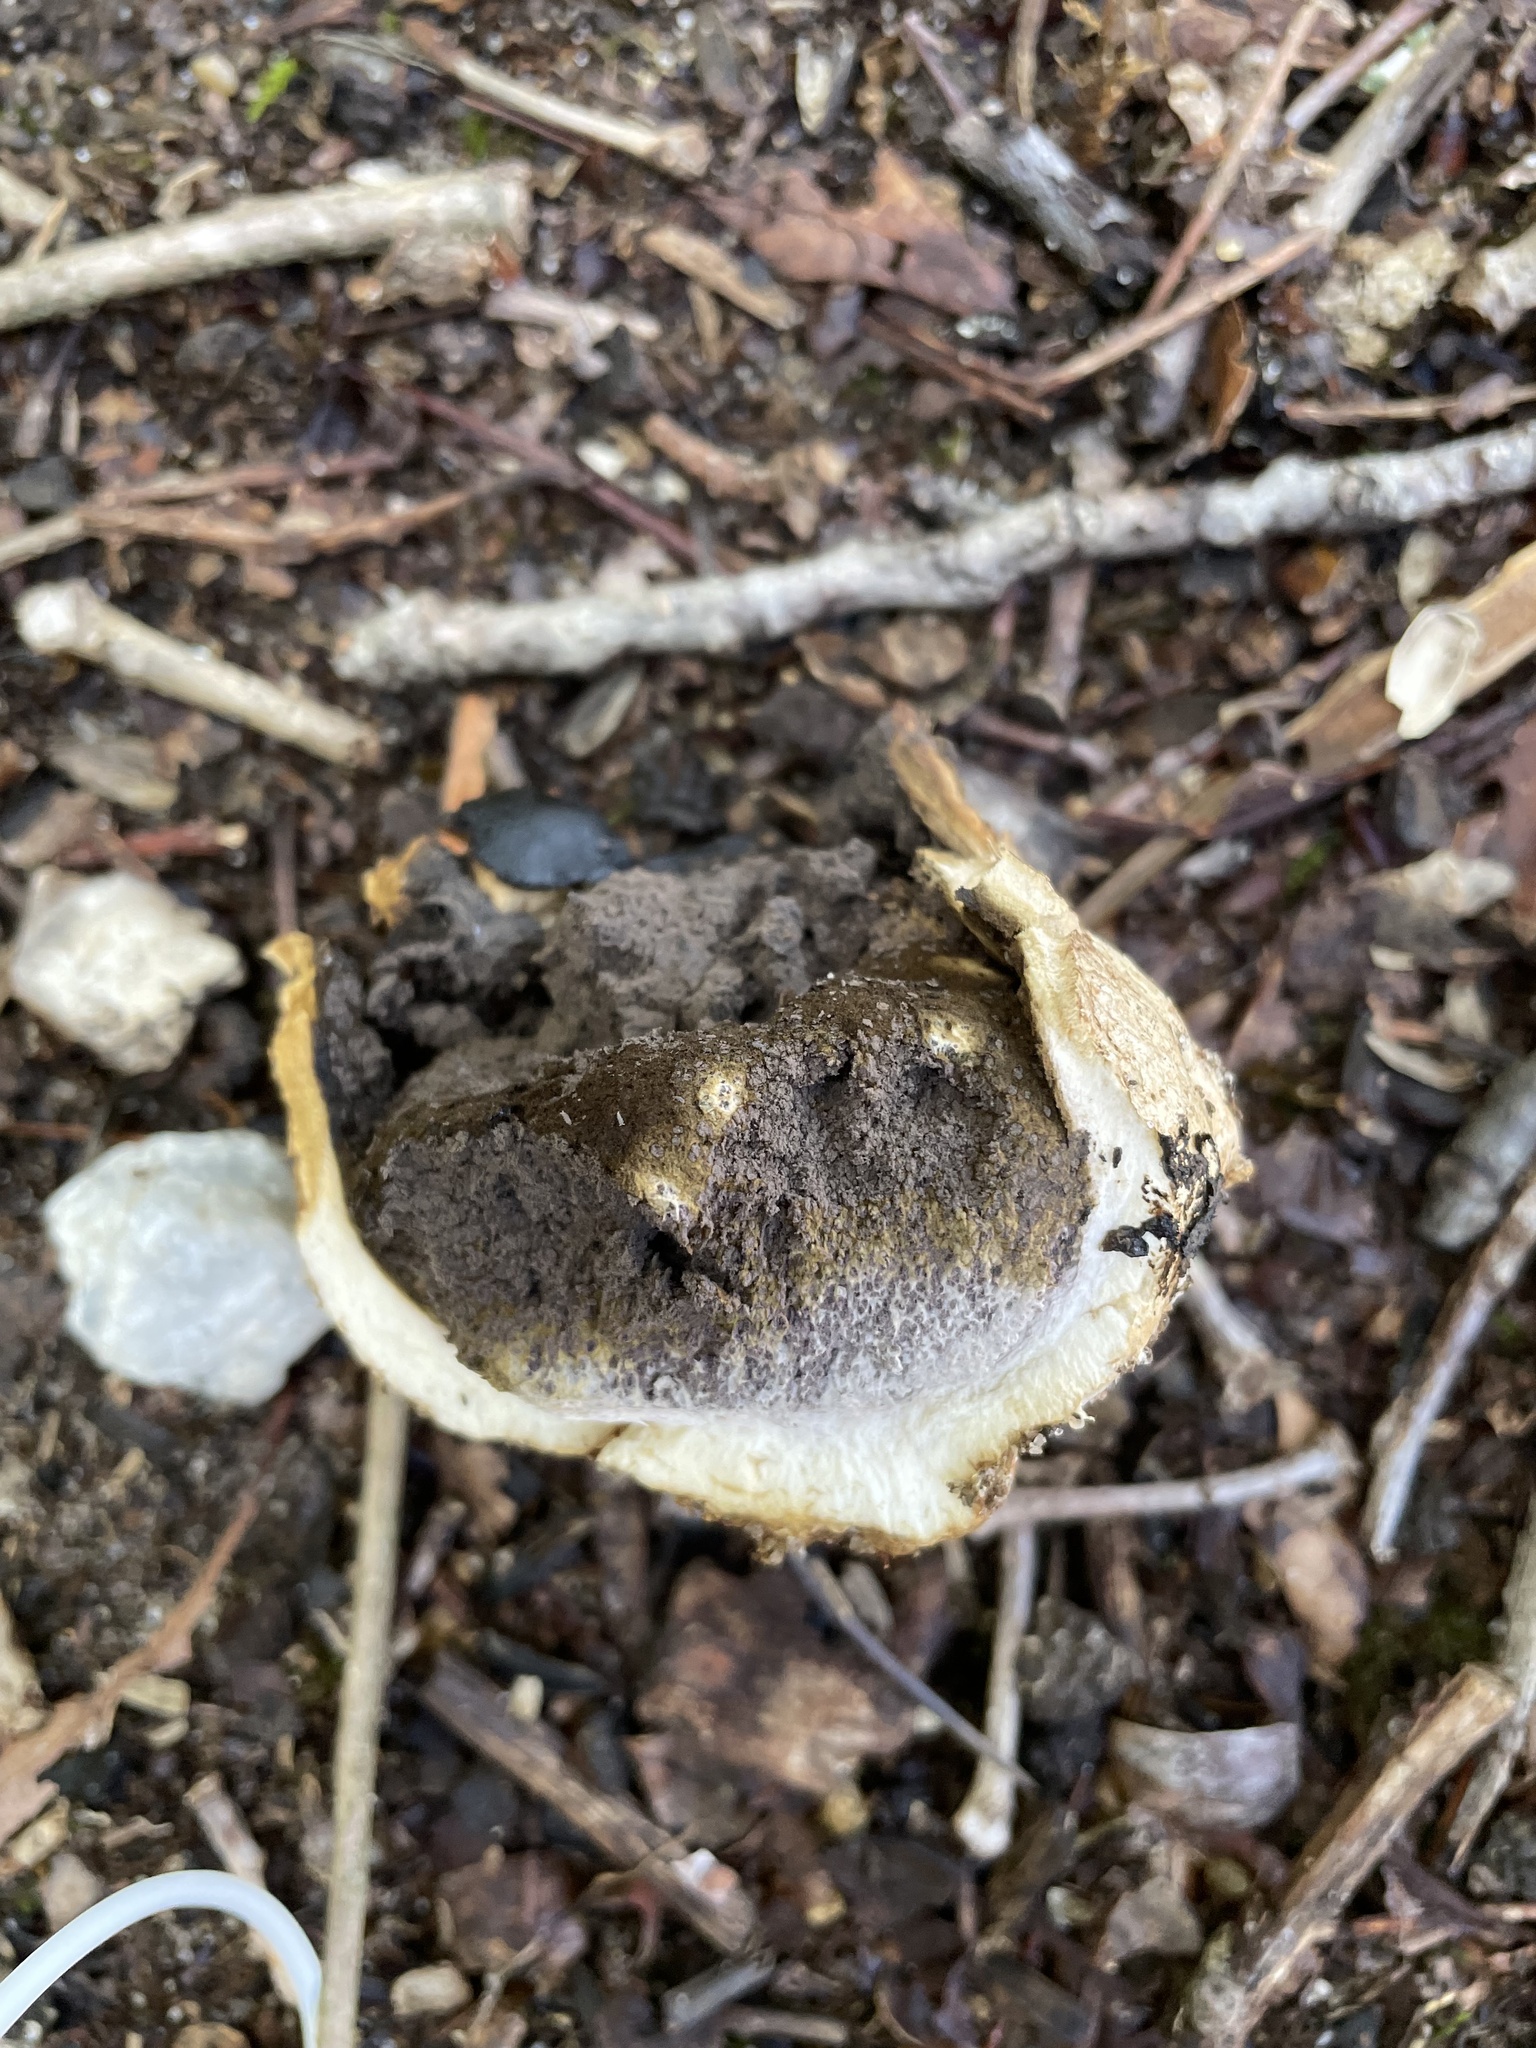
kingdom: Fungi
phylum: Basidiomycota
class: Agaricomycetes
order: Boletales
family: Sclerodermataceae
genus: Scleroderma
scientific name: Scleroderma polyrhizum
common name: Many-rooted earthball
